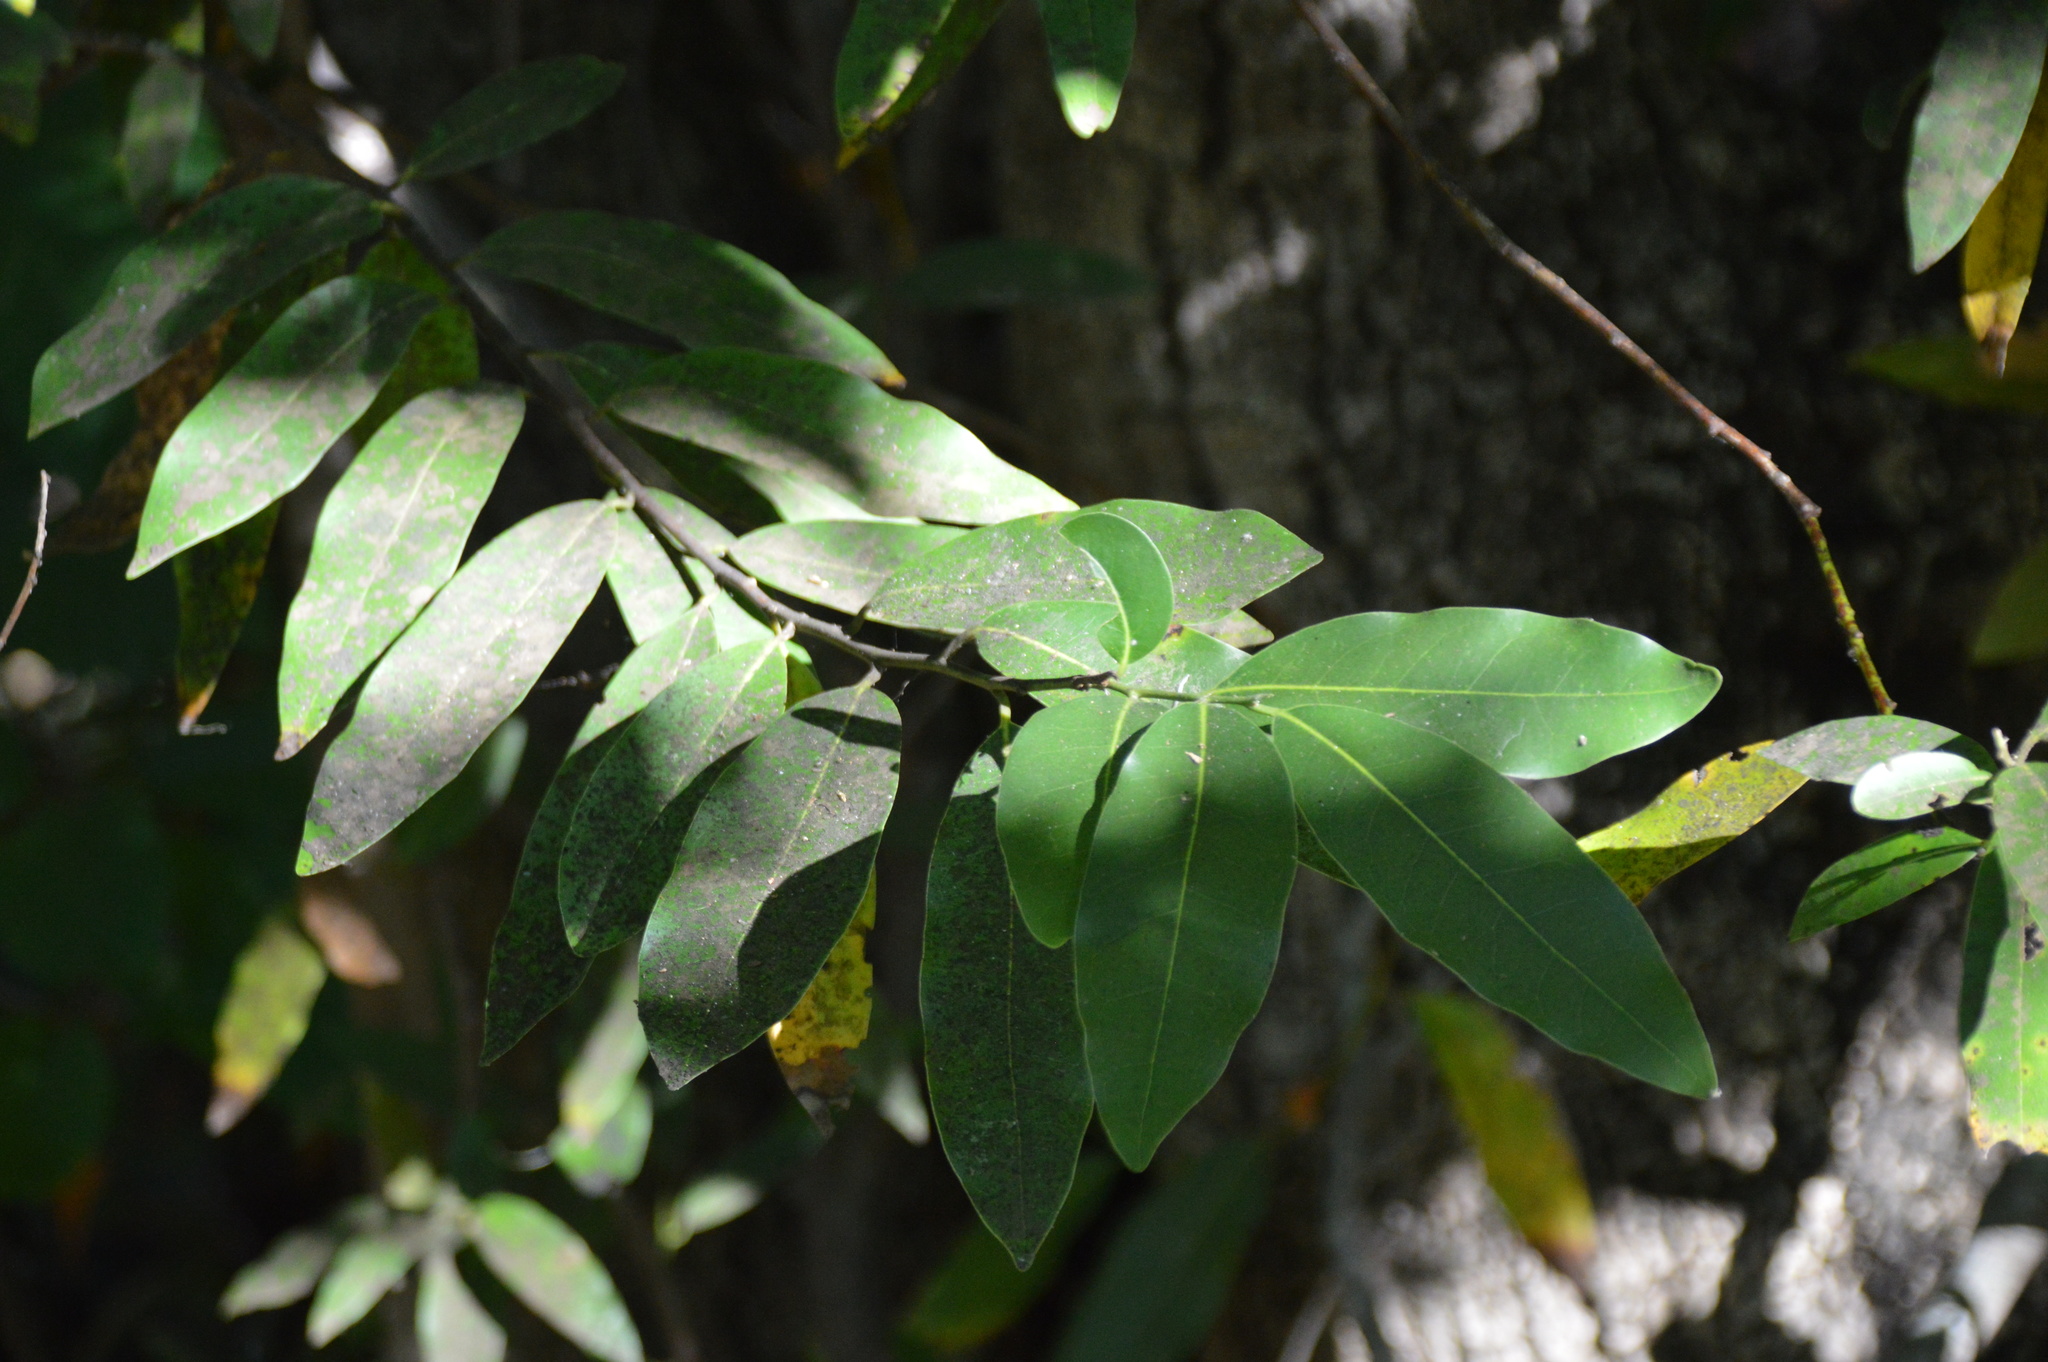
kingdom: Plantae
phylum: Tracheophyta
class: Magnoliopsida
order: Laurales
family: Lauraceae
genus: Umbellularia
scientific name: Umbellularia californica
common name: California bay
